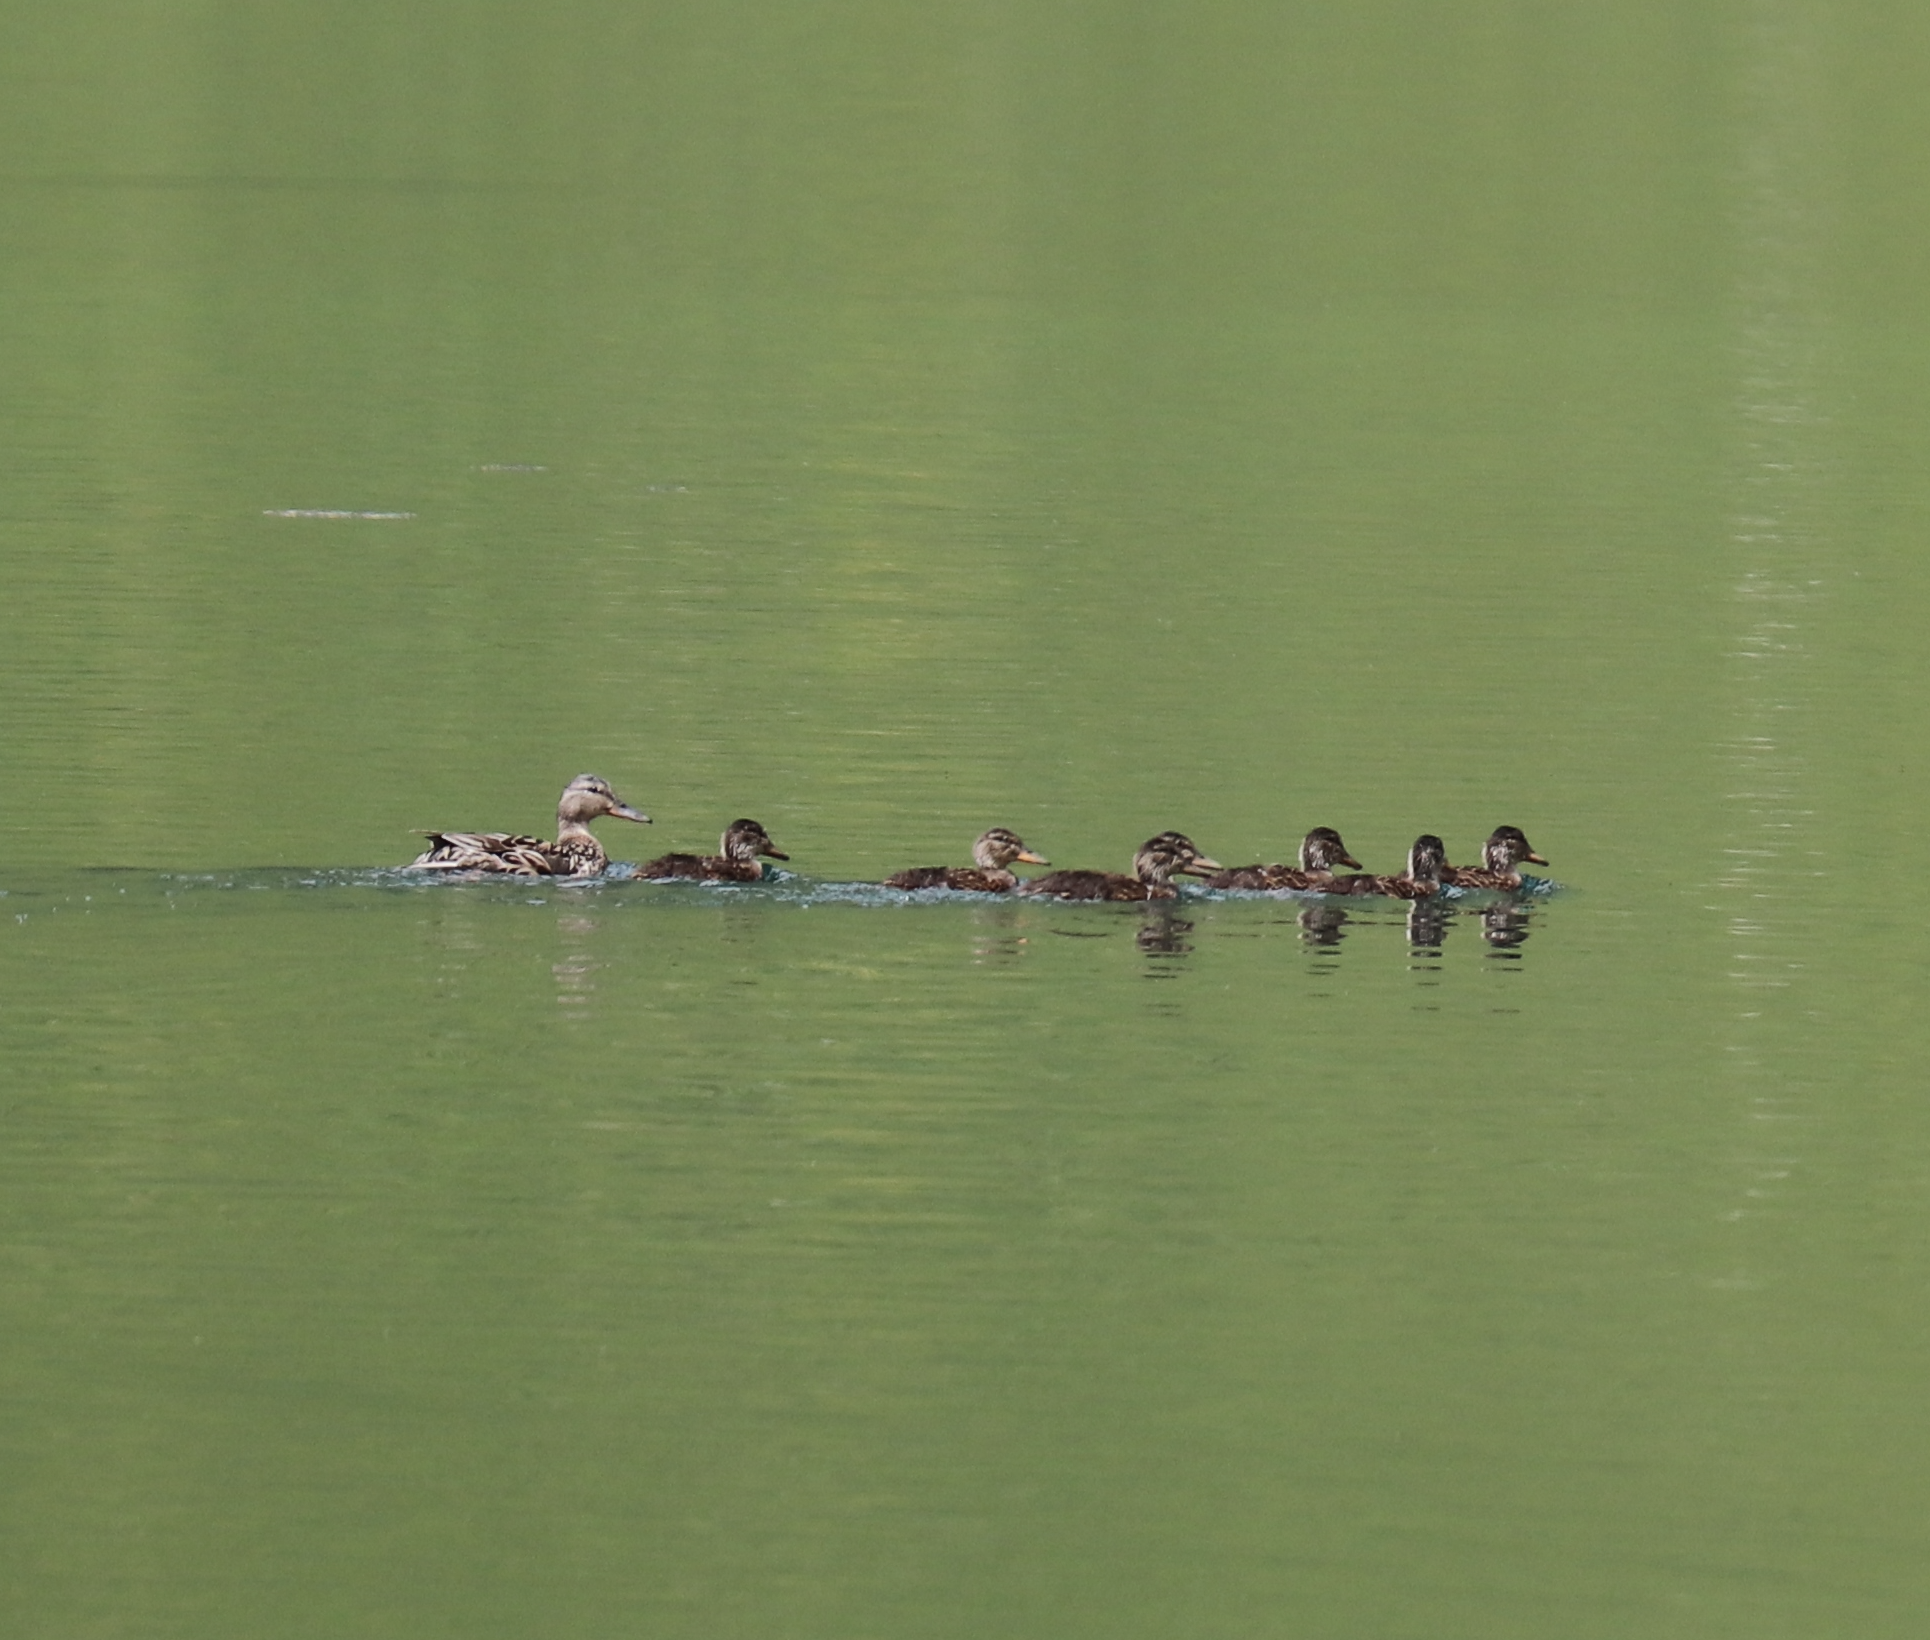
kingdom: Animalia
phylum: Chordata
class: Aves
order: Anseriformes
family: Anatidae
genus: Anas
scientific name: Anas platyrhynchos
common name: Mallard
